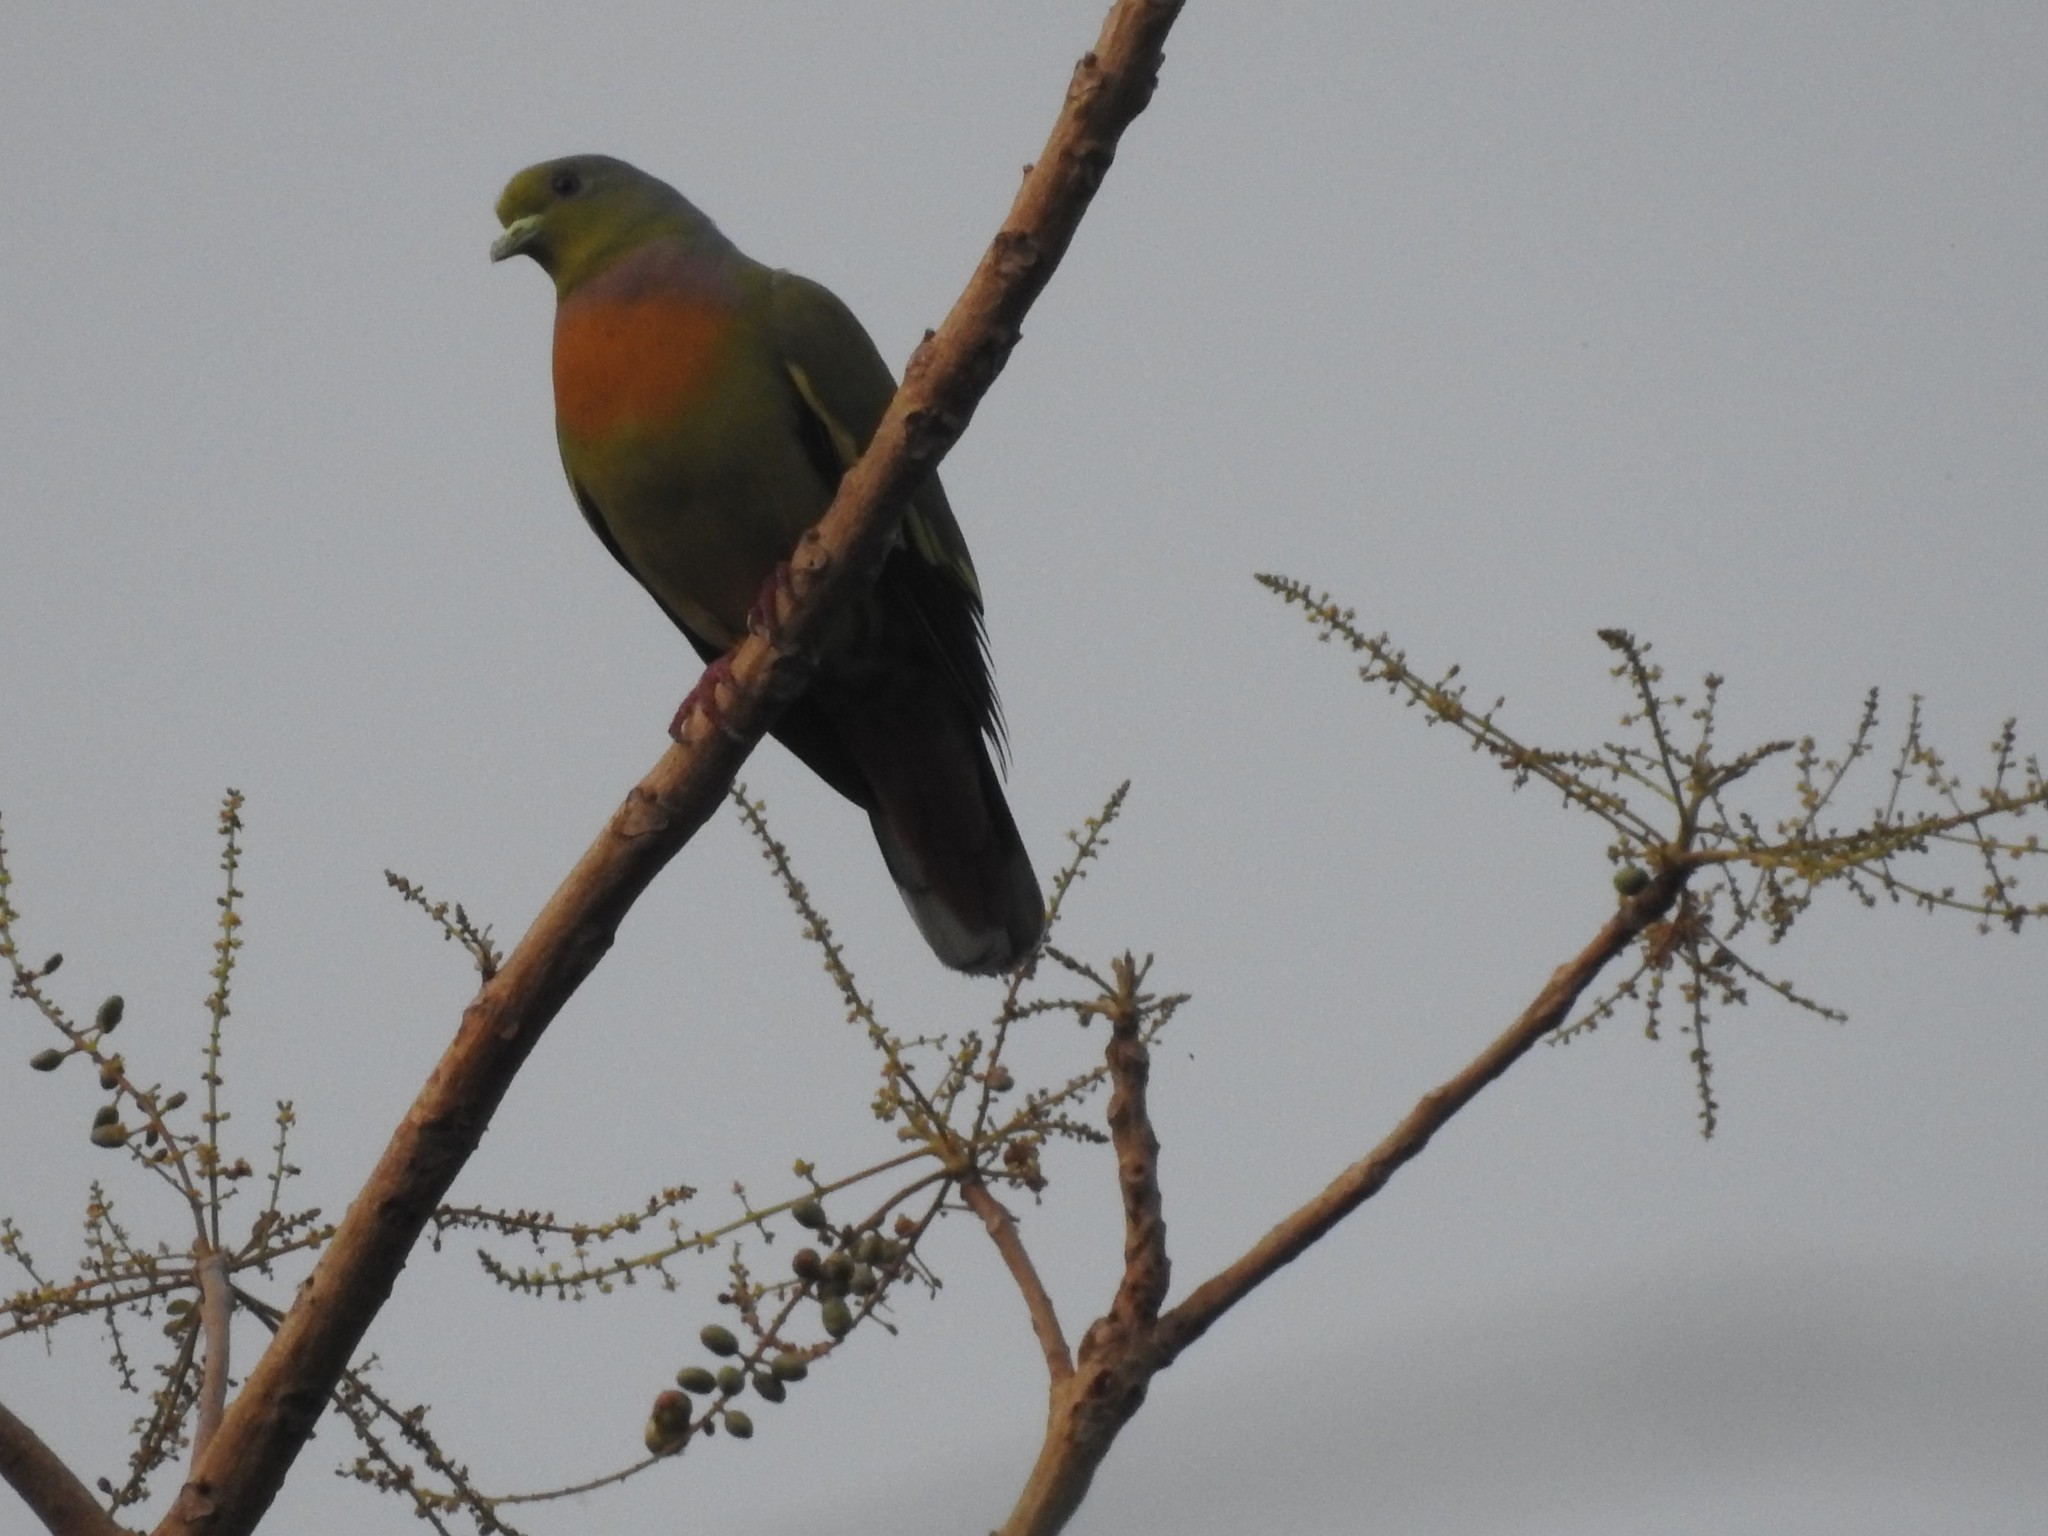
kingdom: Animalia
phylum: Chordata
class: Aves
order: Columbiformes
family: Columbidae
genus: Treron
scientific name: Treron bicinctus
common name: Orange-breasted green pigeon
